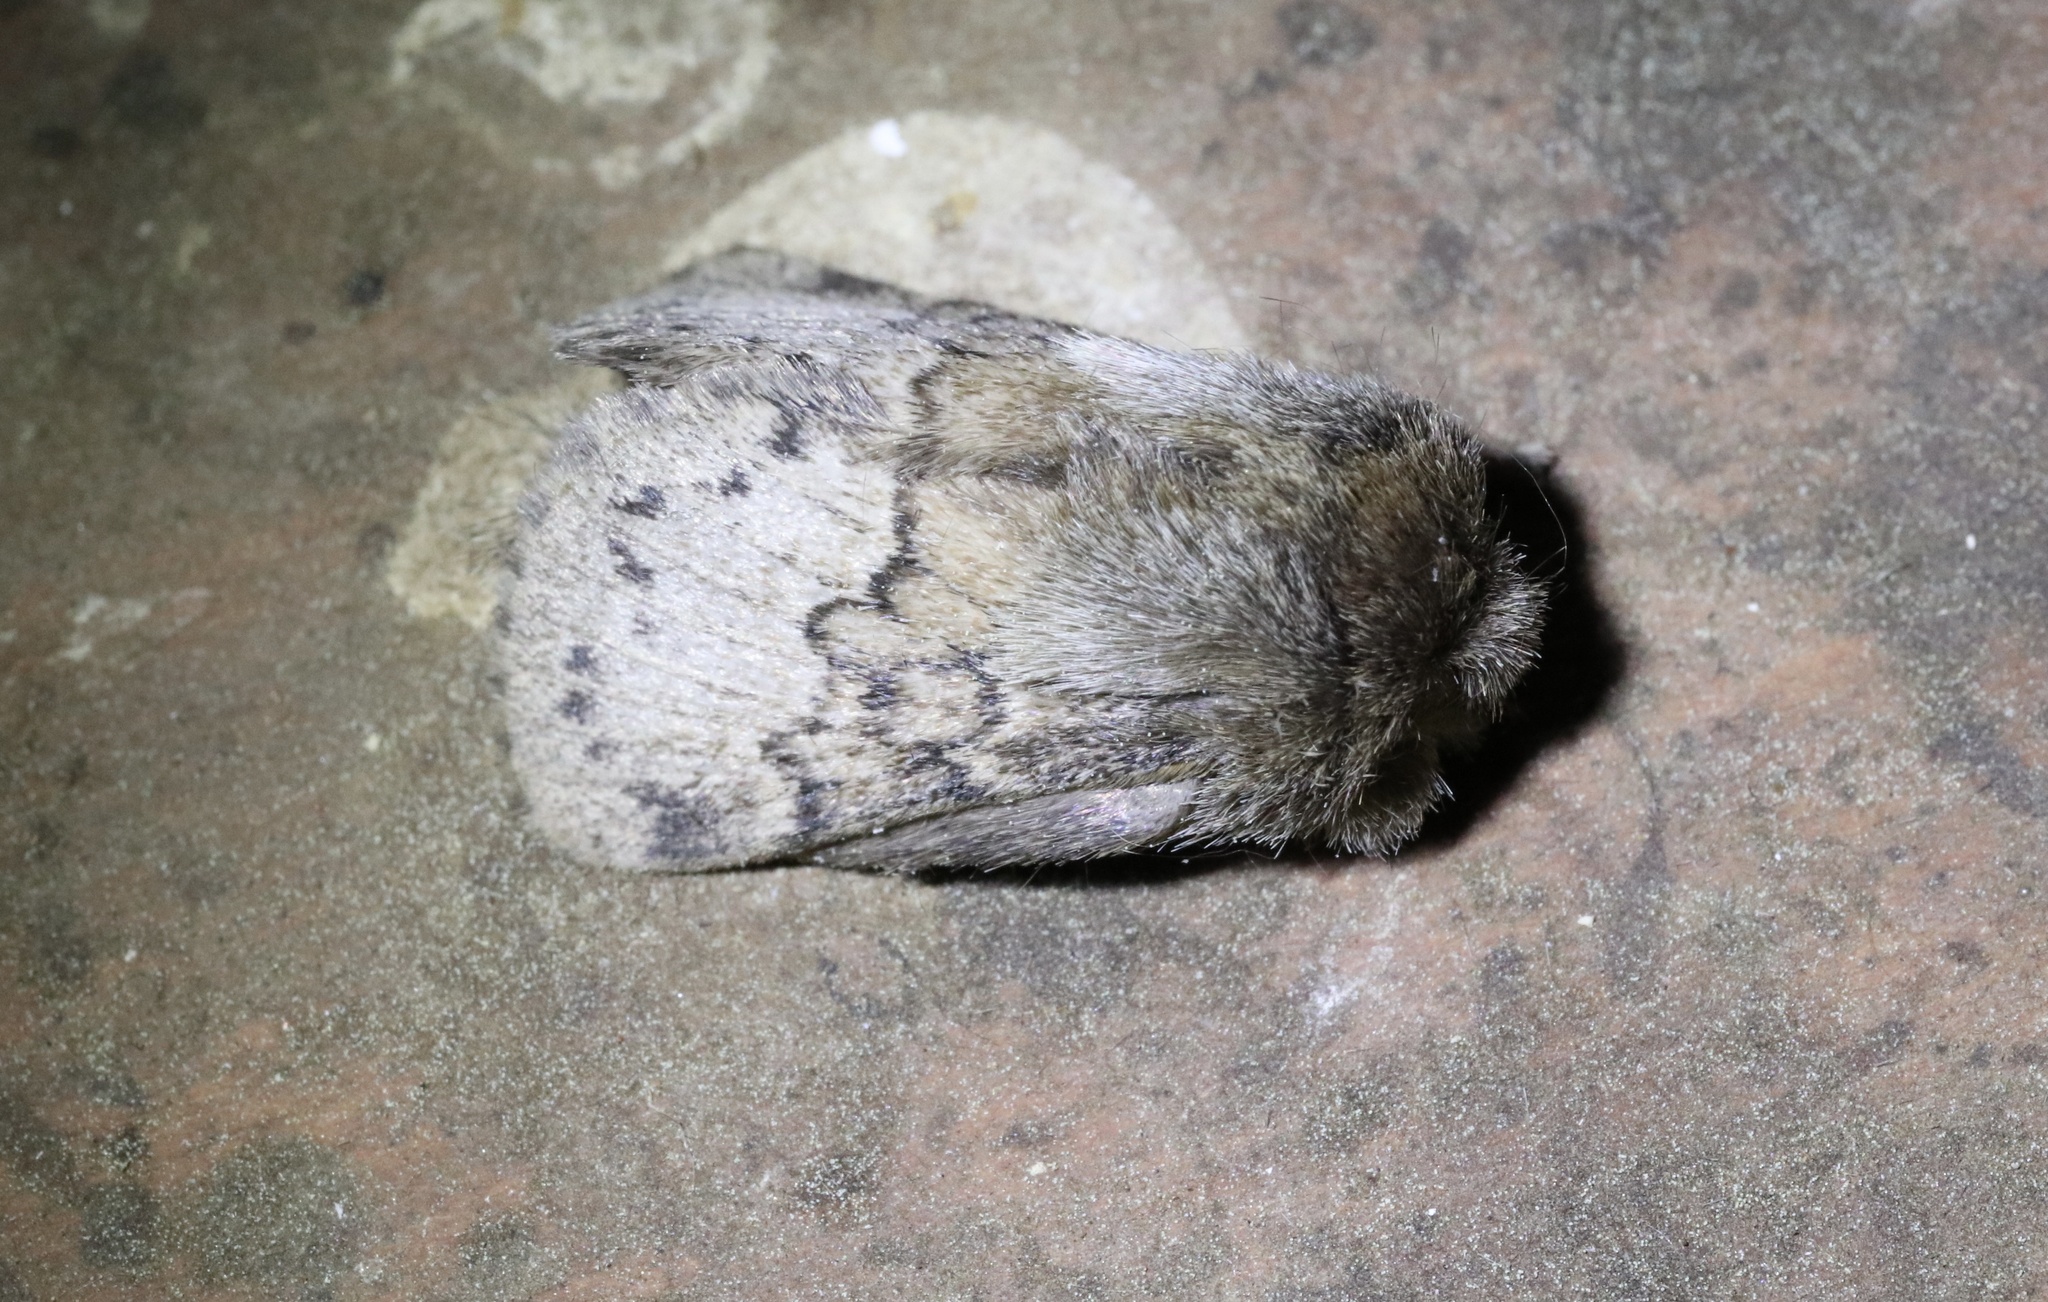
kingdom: Animalia
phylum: Arthropoda
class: Insecta
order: Lepidoptera
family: Lasiocampidae
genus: Macromphalia
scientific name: Macromphalia ancilla
